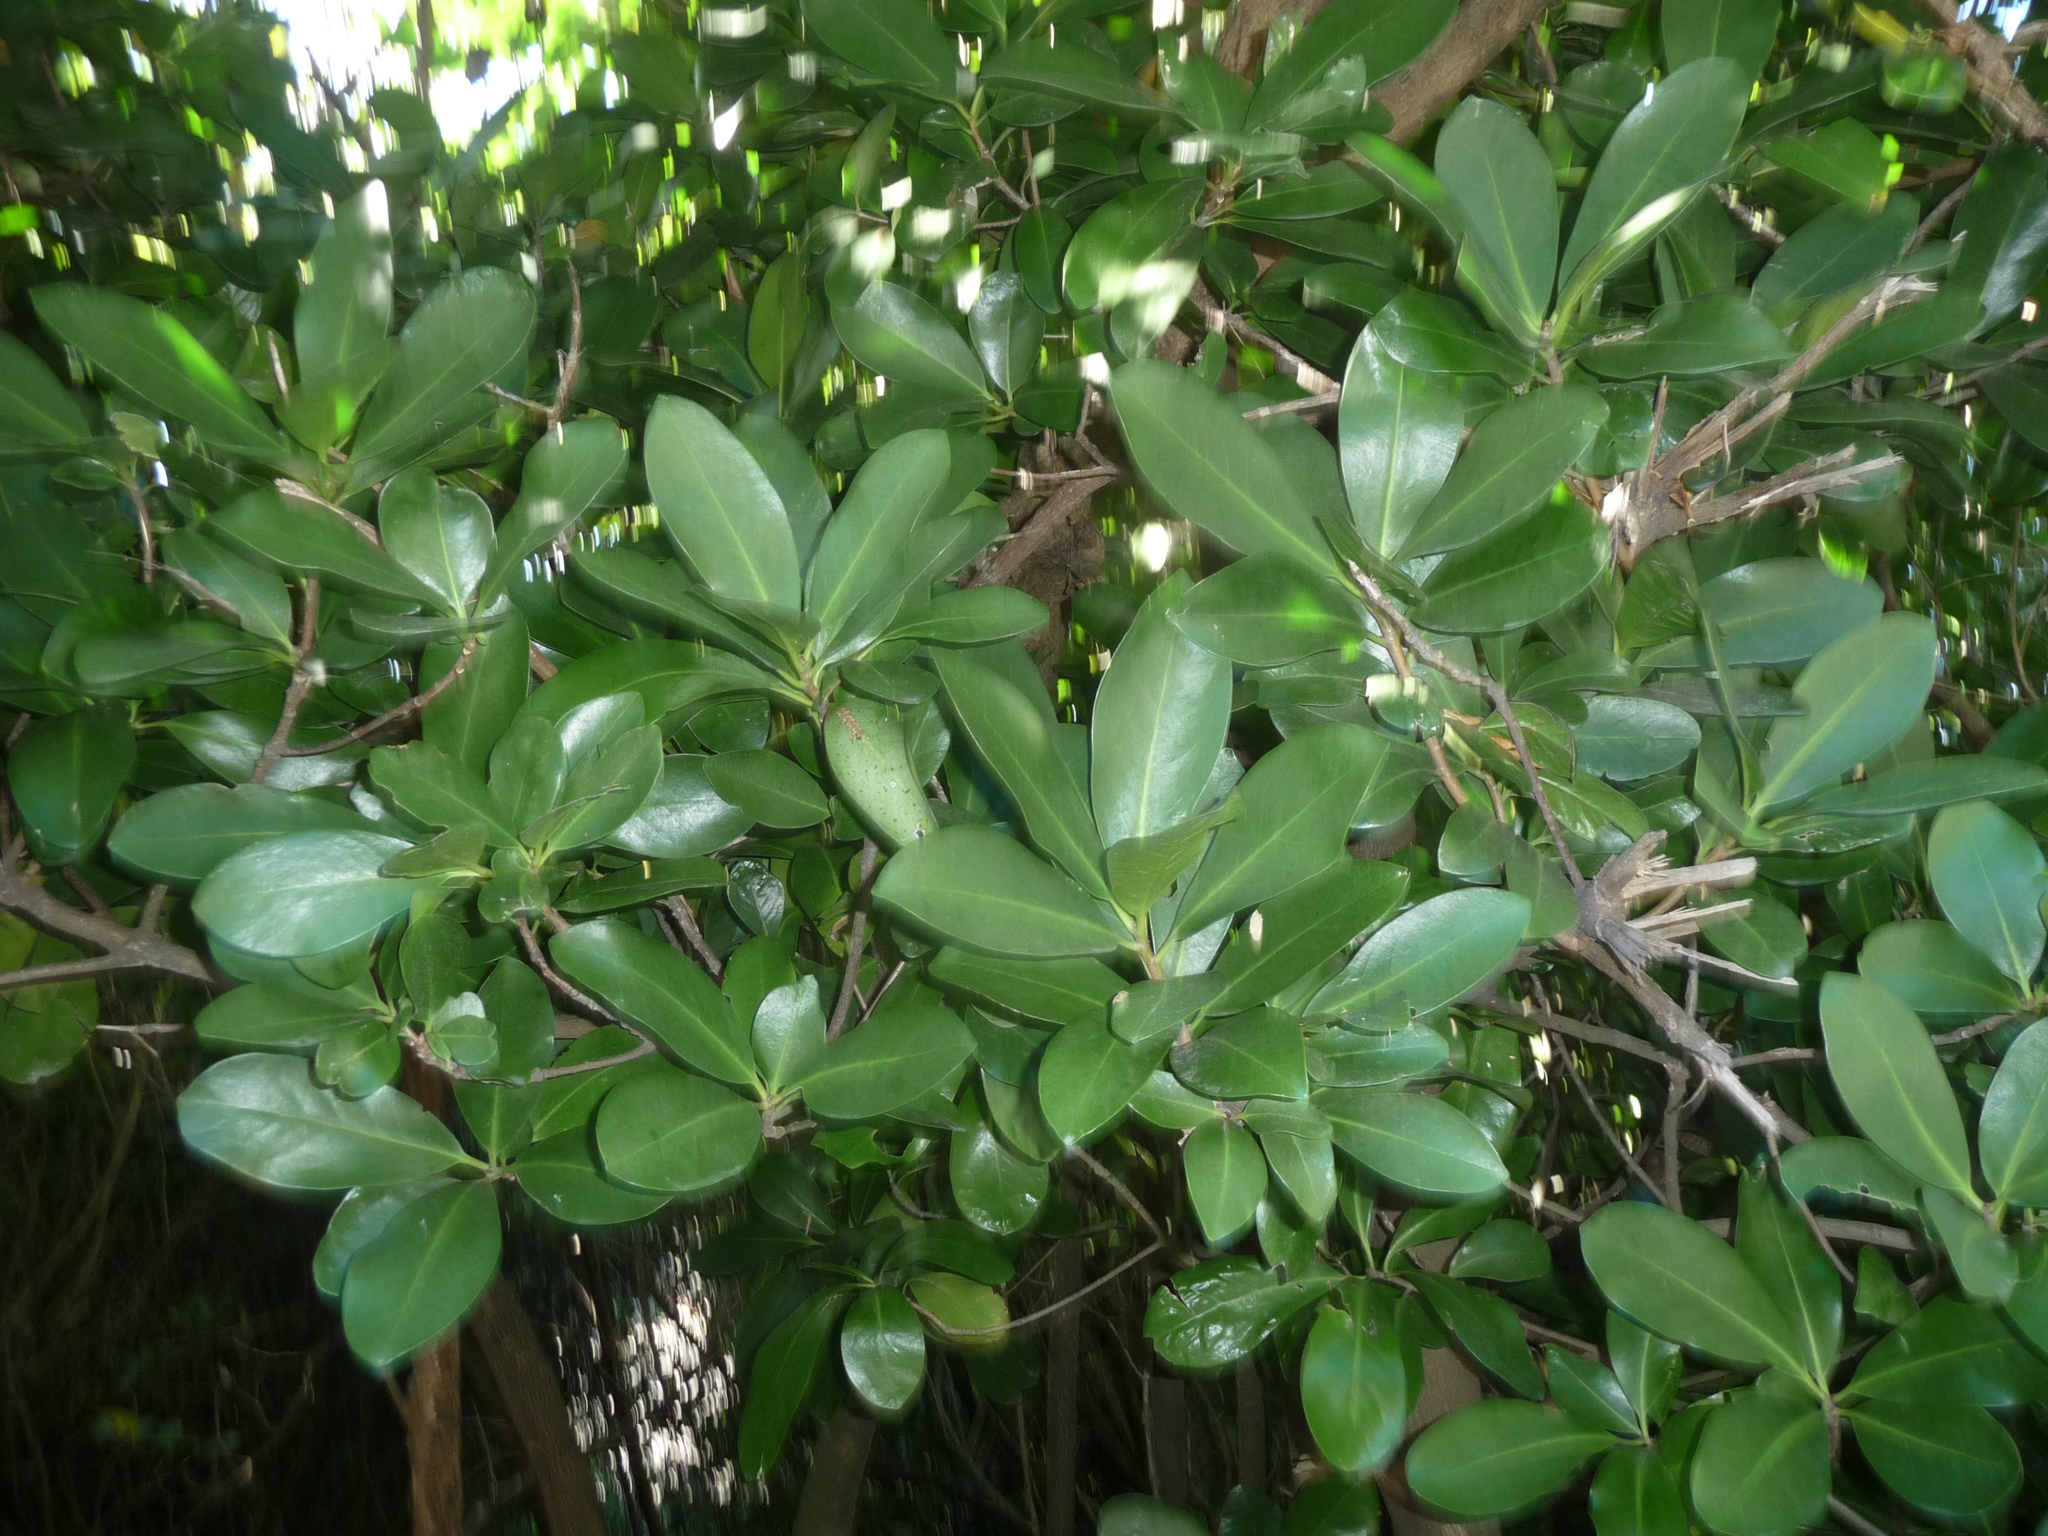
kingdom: Plantae
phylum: Tracheophyta
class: Magnoliopsida
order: Cucurbitales
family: Corynocarpaceae
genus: Corynocarpus
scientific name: Corynocarpus laevigatus
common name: New zealand laurel
